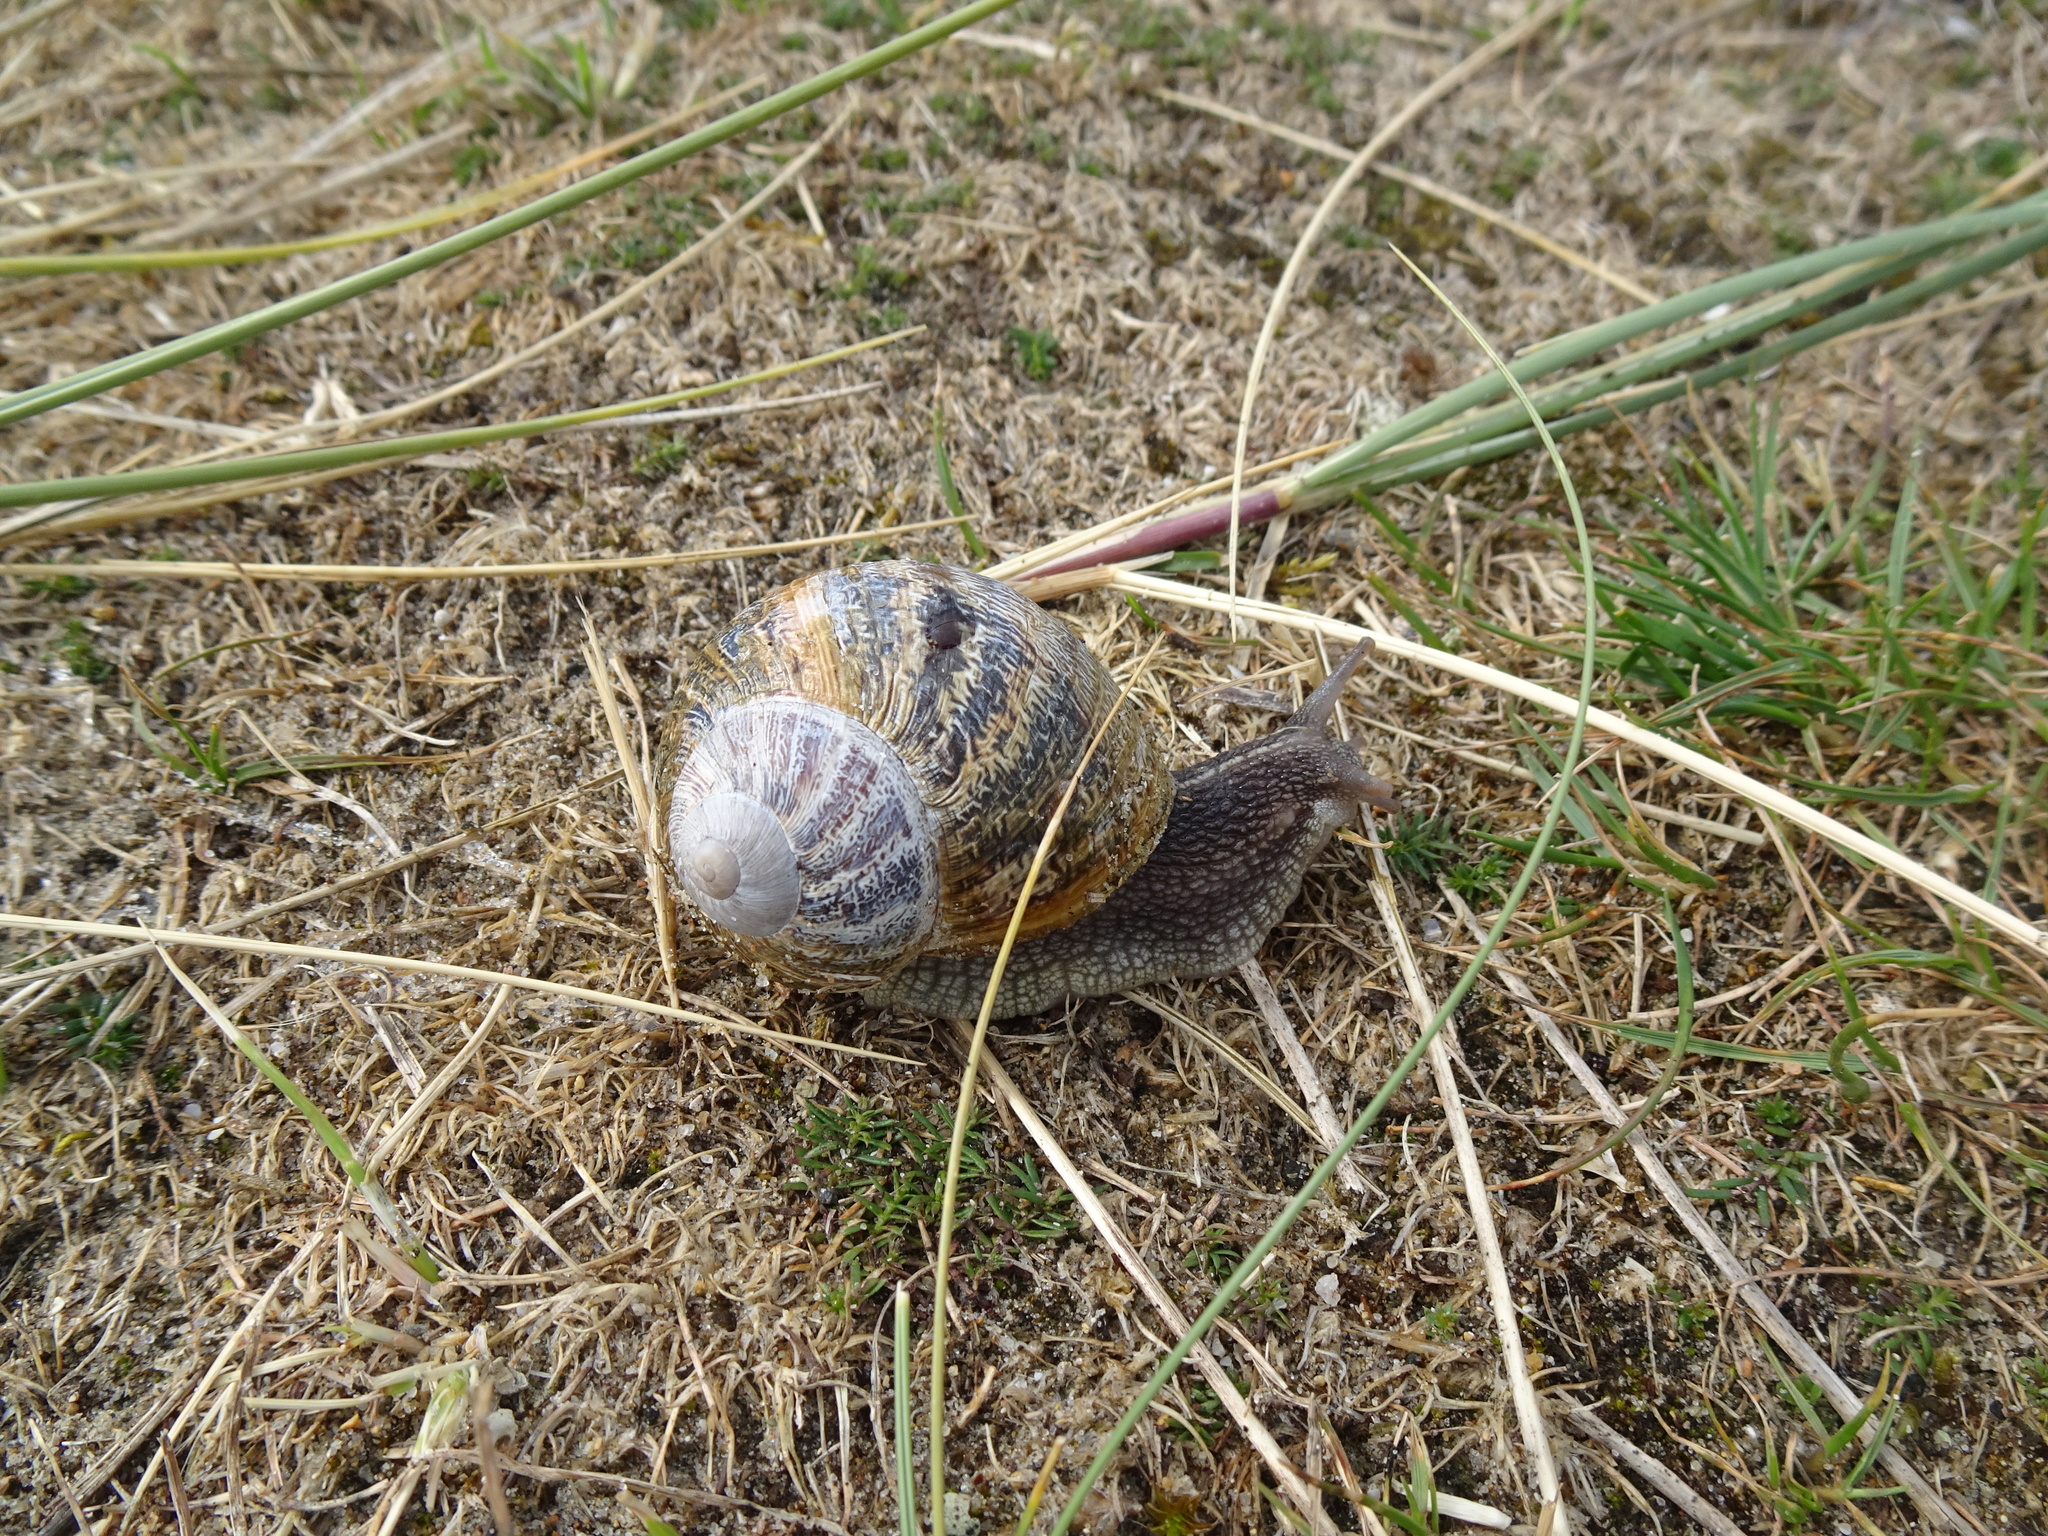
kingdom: Animalia
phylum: Mollusca
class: Gastropoda
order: Stylommatophora
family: Helicidae
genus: Cornu
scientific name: Cornu aspersum
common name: Brown garden snail
